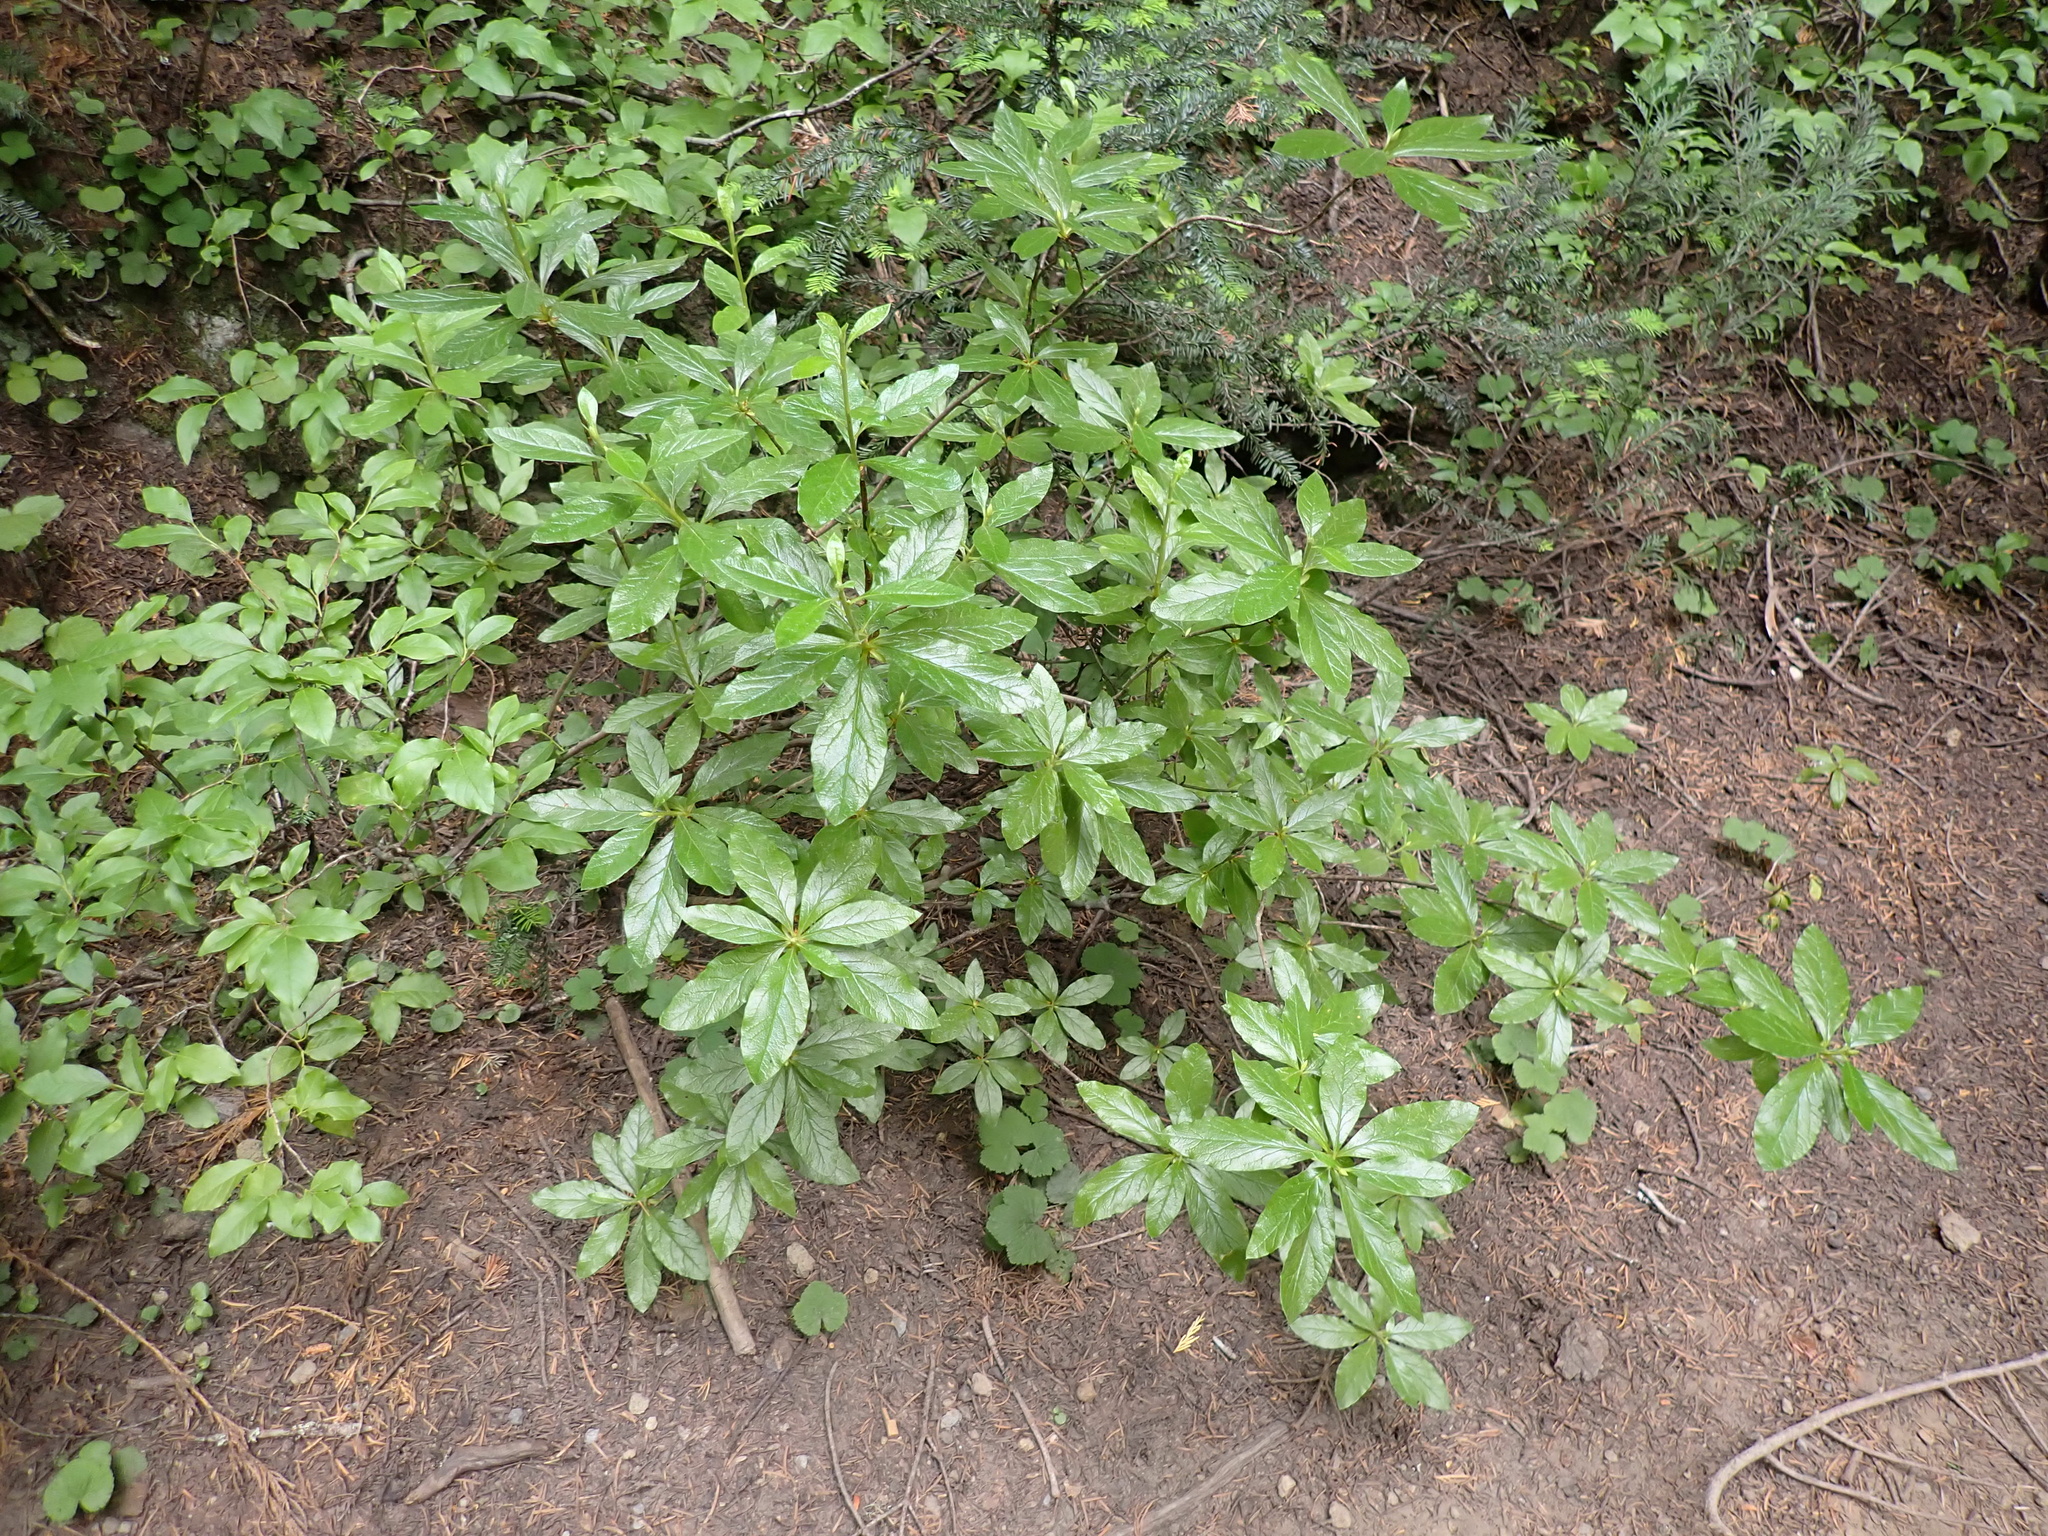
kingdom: Plantae
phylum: Tracheophyta
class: Magnoliopsida
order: Ericales
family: Ericaceae
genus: Rhododendron
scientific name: Rhododendron albiflorum
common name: White rhododendron
